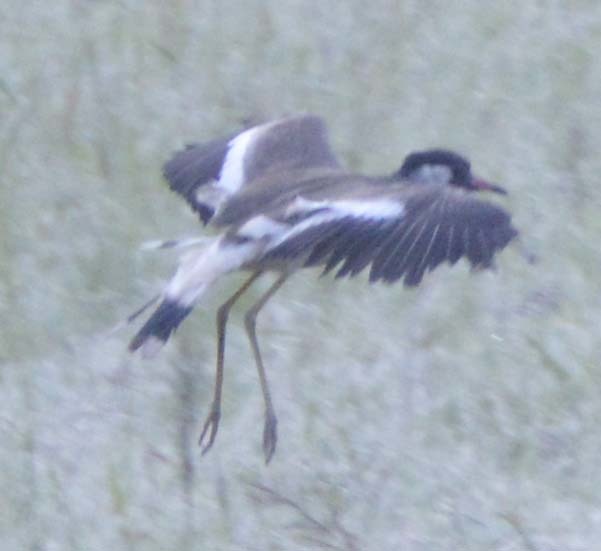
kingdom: Animalia
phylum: Chordata
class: Aves
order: Charadriiformes
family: Charadriidae
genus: Vanellus
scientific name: Vanellus indicus
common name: Red-wattled lapwing
